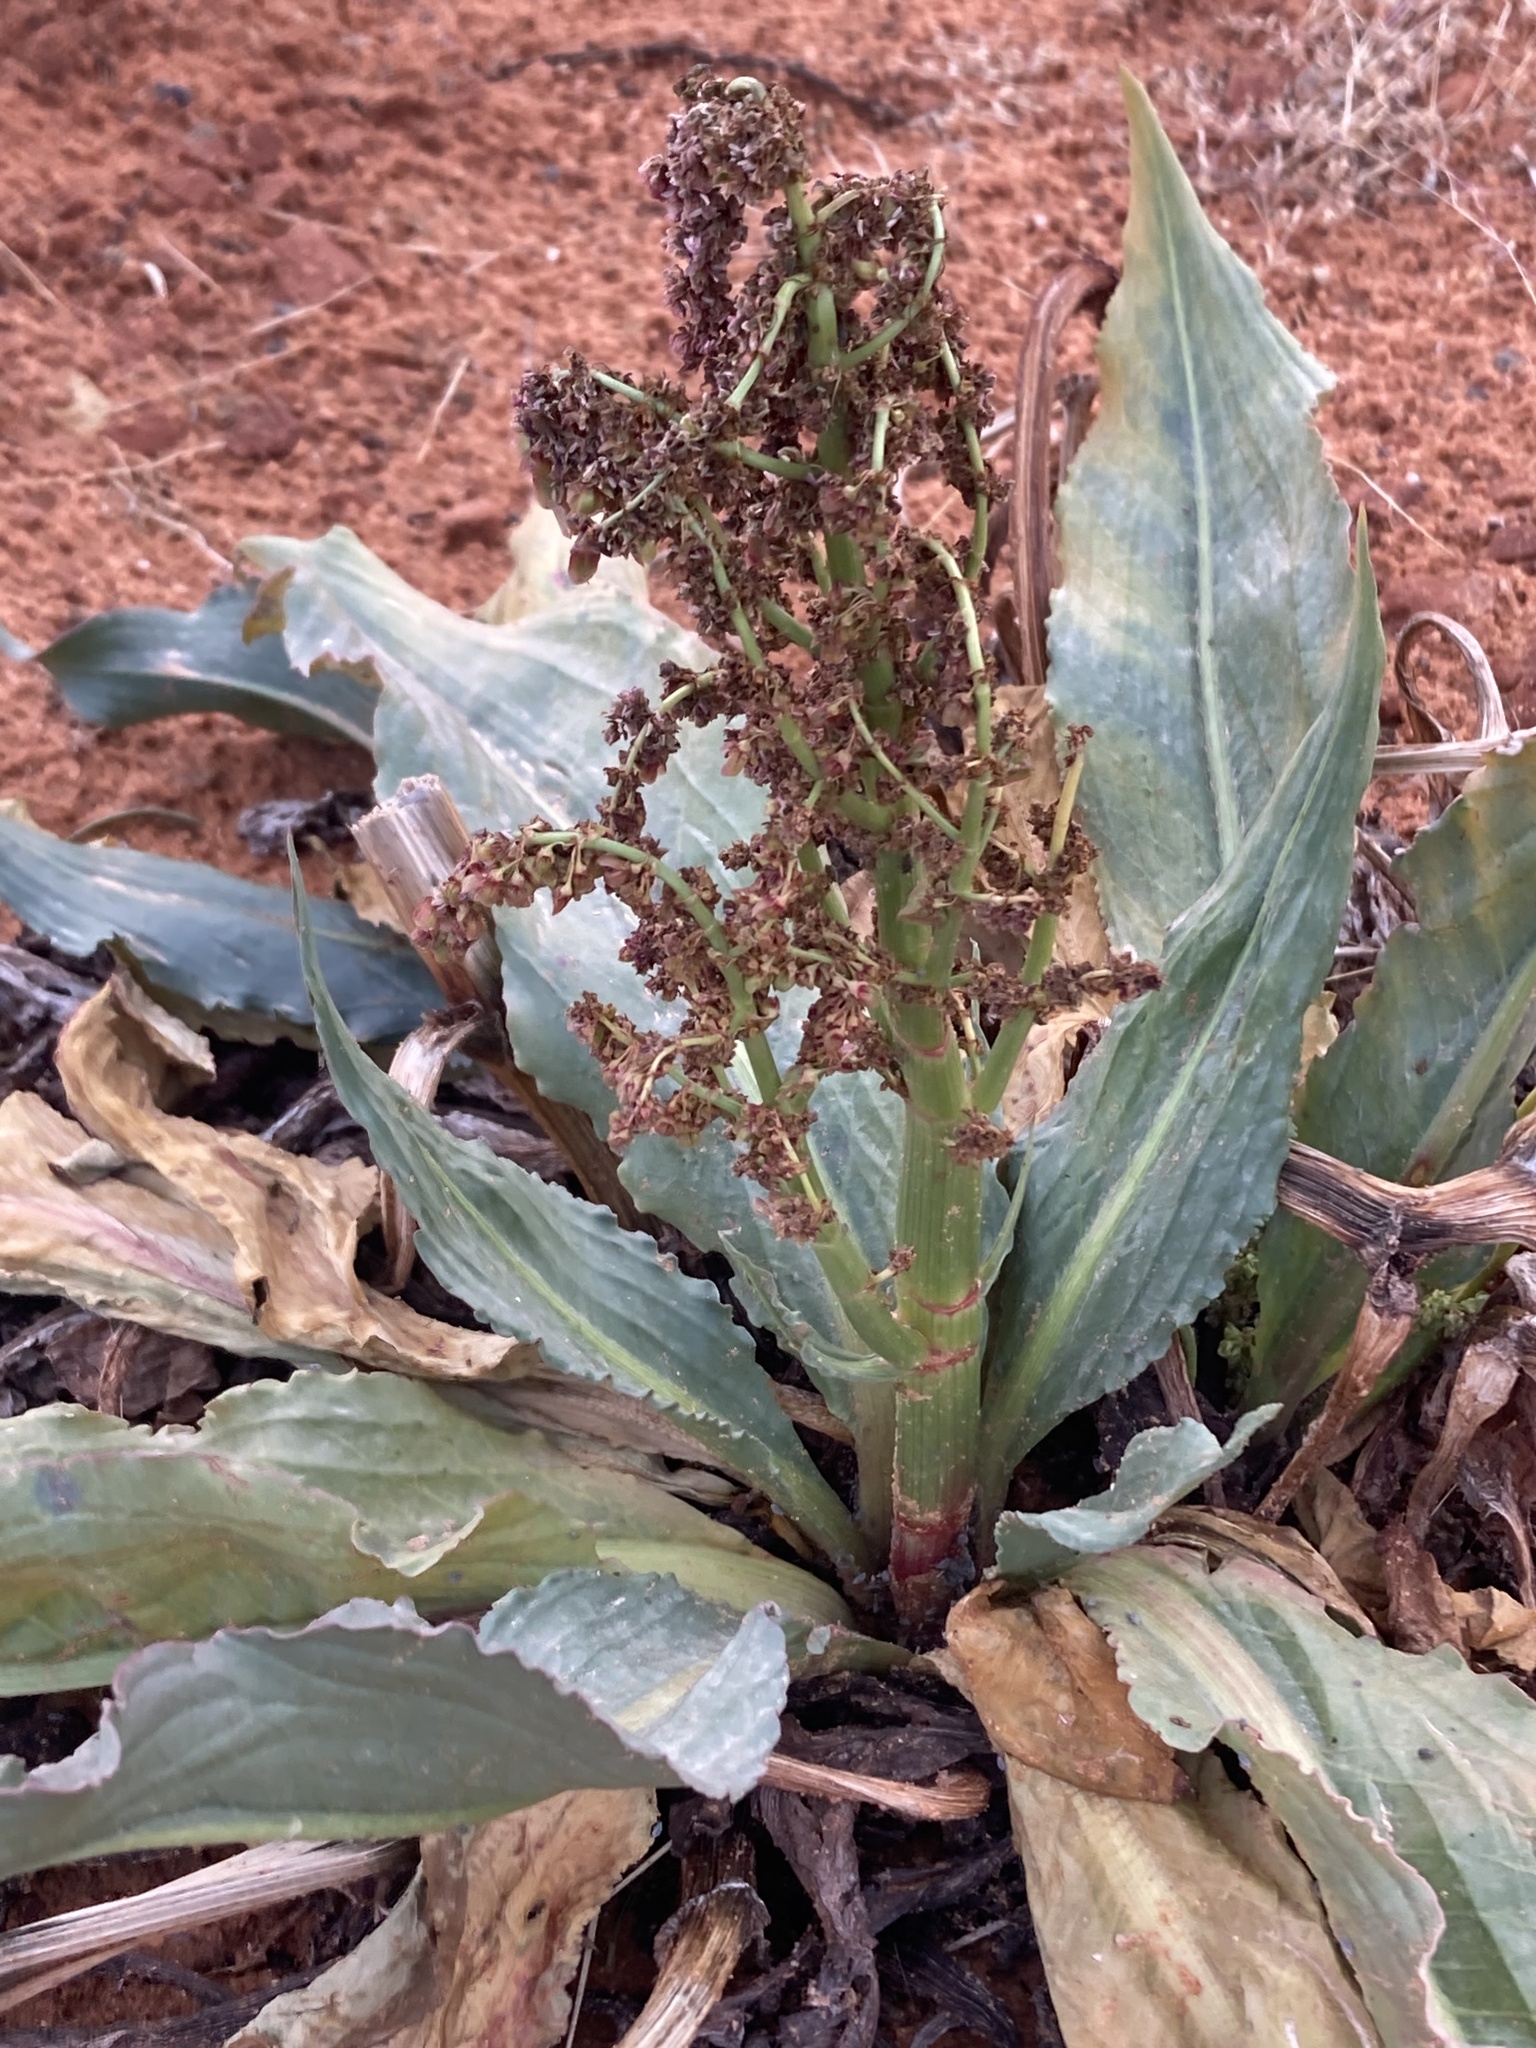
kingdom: Plantae
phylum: Tracheophyta
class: Magnoliopsida
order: Caryophyllales
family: Polygonaceae
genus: Rumex
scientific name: Rumex hymenosepalus
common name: Ganagra
